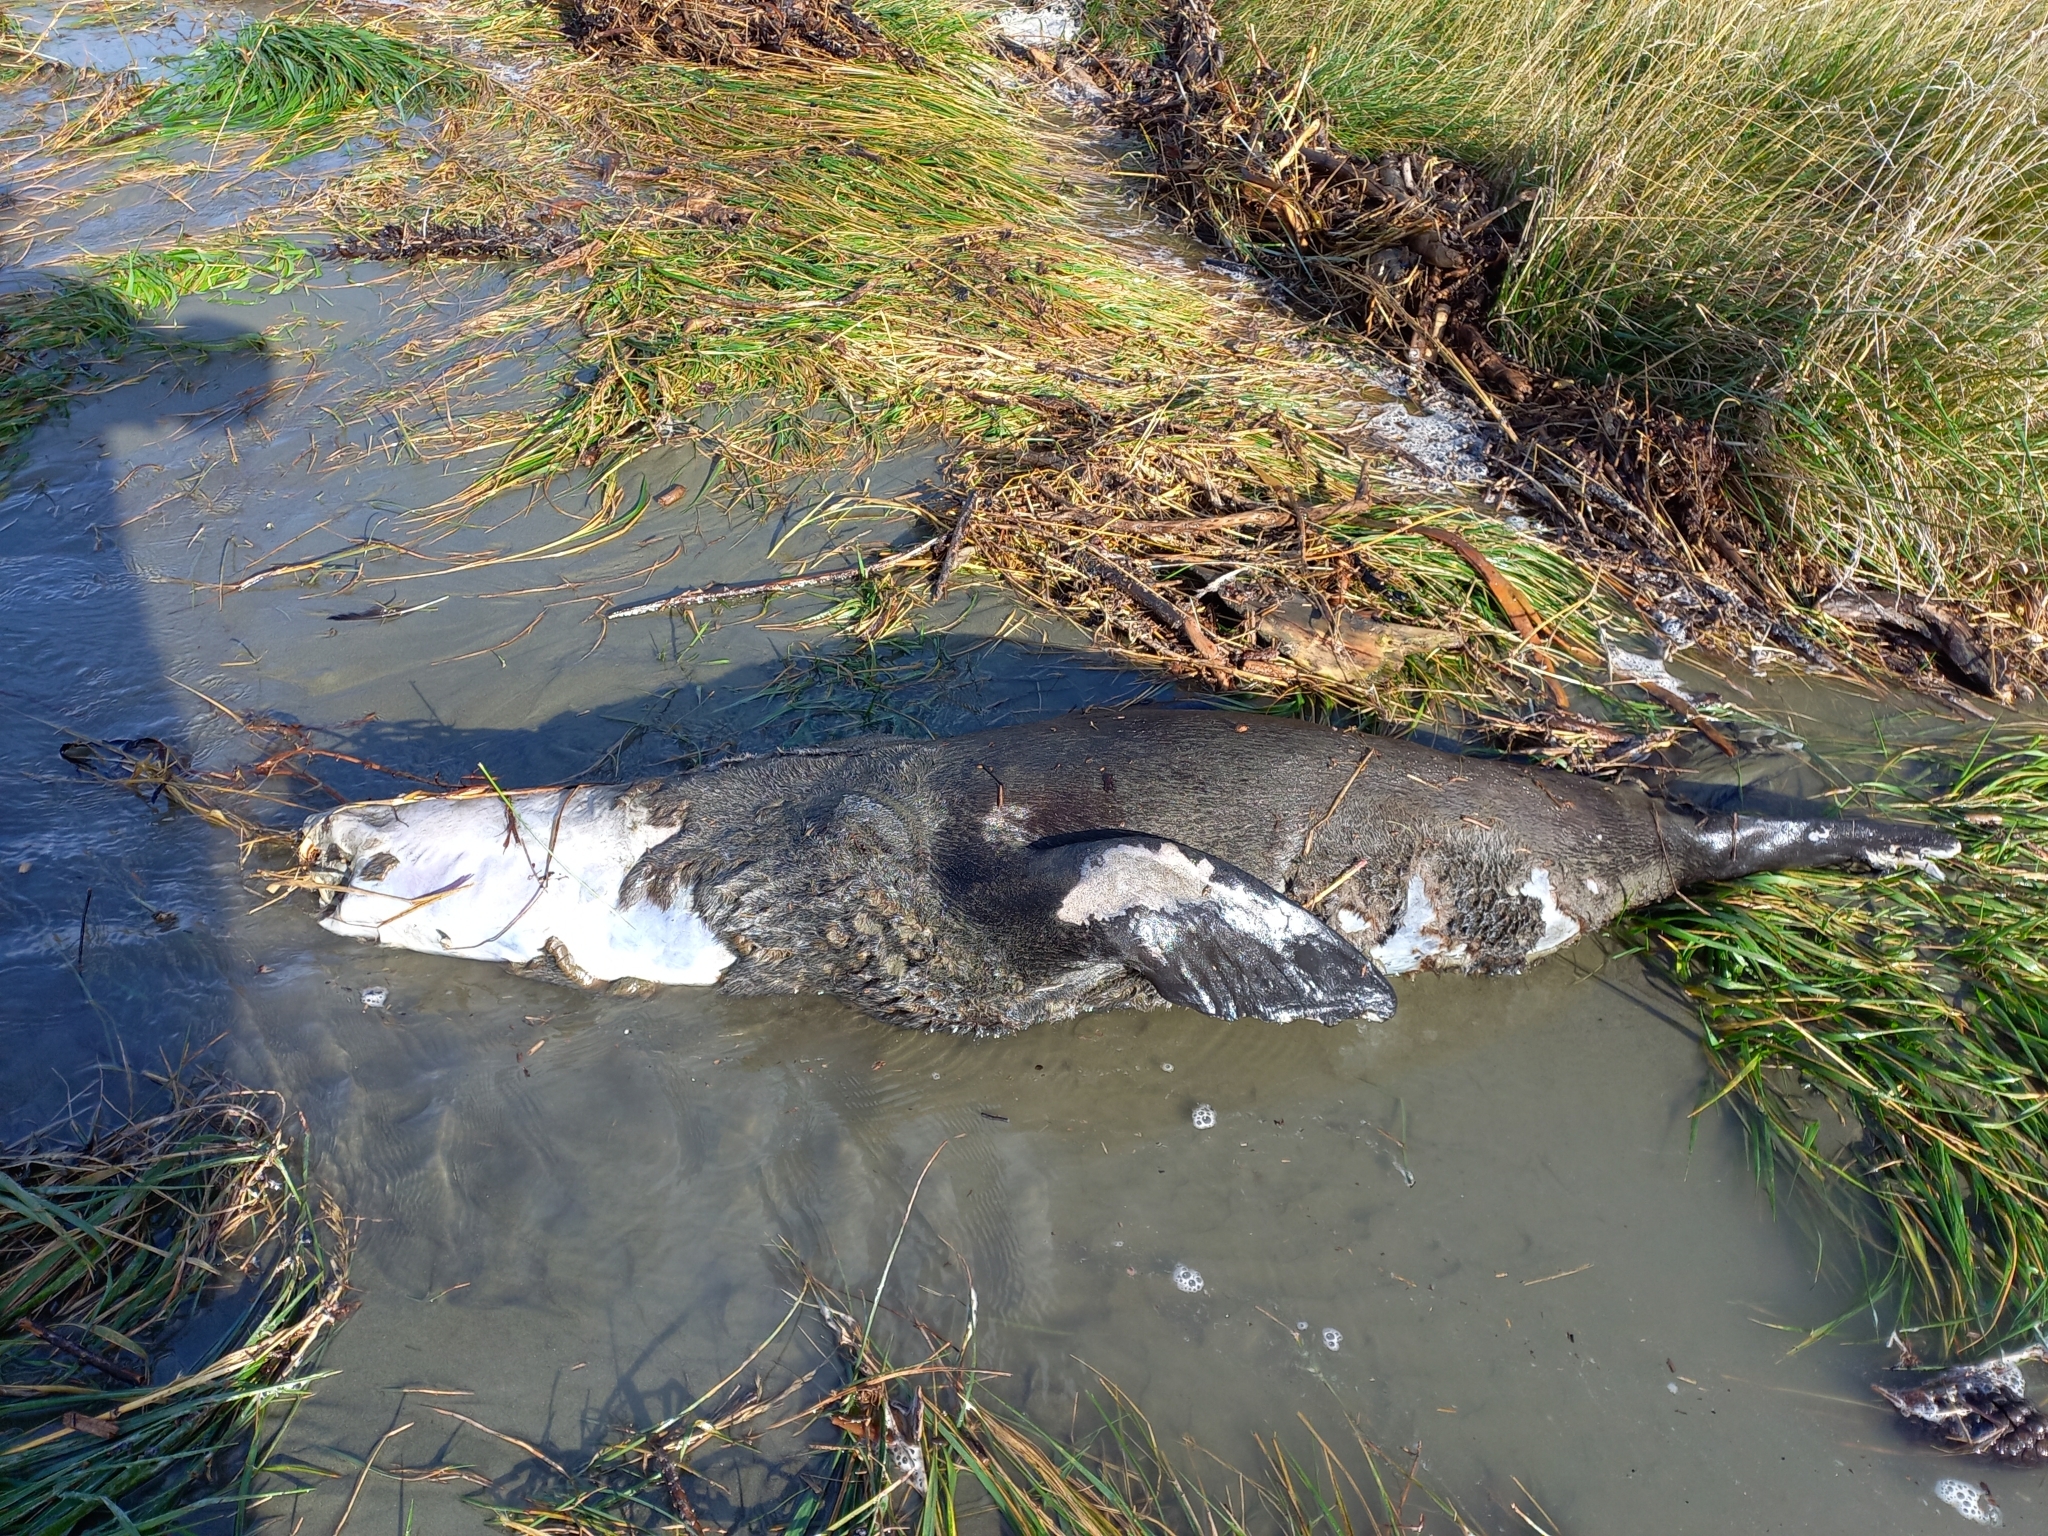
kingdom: Animalia
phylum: Chordata
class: Mammalia
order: Carnivora
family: Otariidae
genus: Arctocephalus
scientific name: Arctocephalus forsteri
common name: New zealand fur seal
